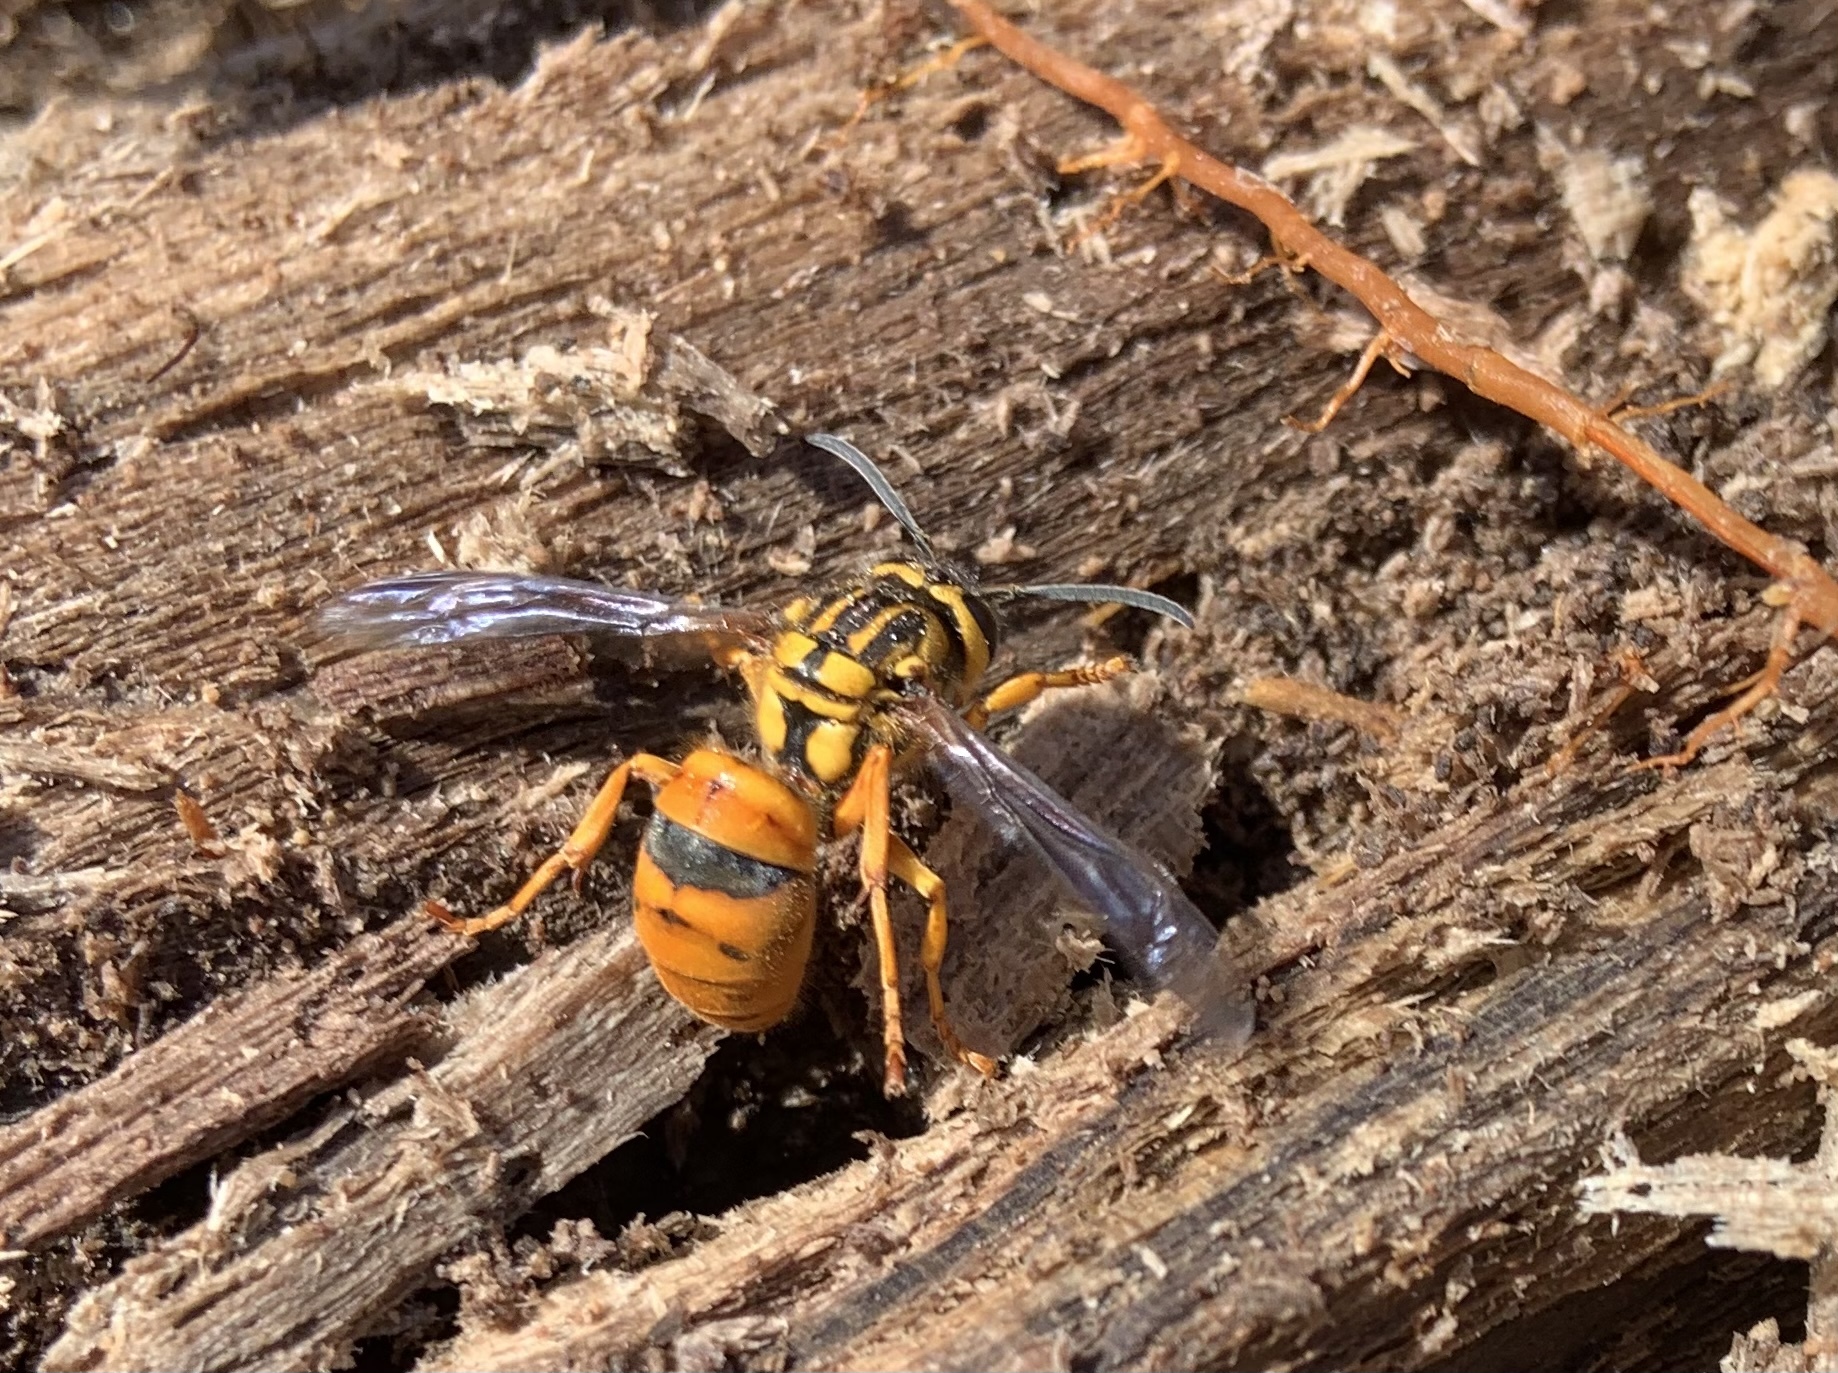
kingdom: Animalia
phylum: Arthropoda
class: Insecta
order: Hymenoptera
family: Vespidae
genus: Vespula
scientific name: Vespula squamosa
